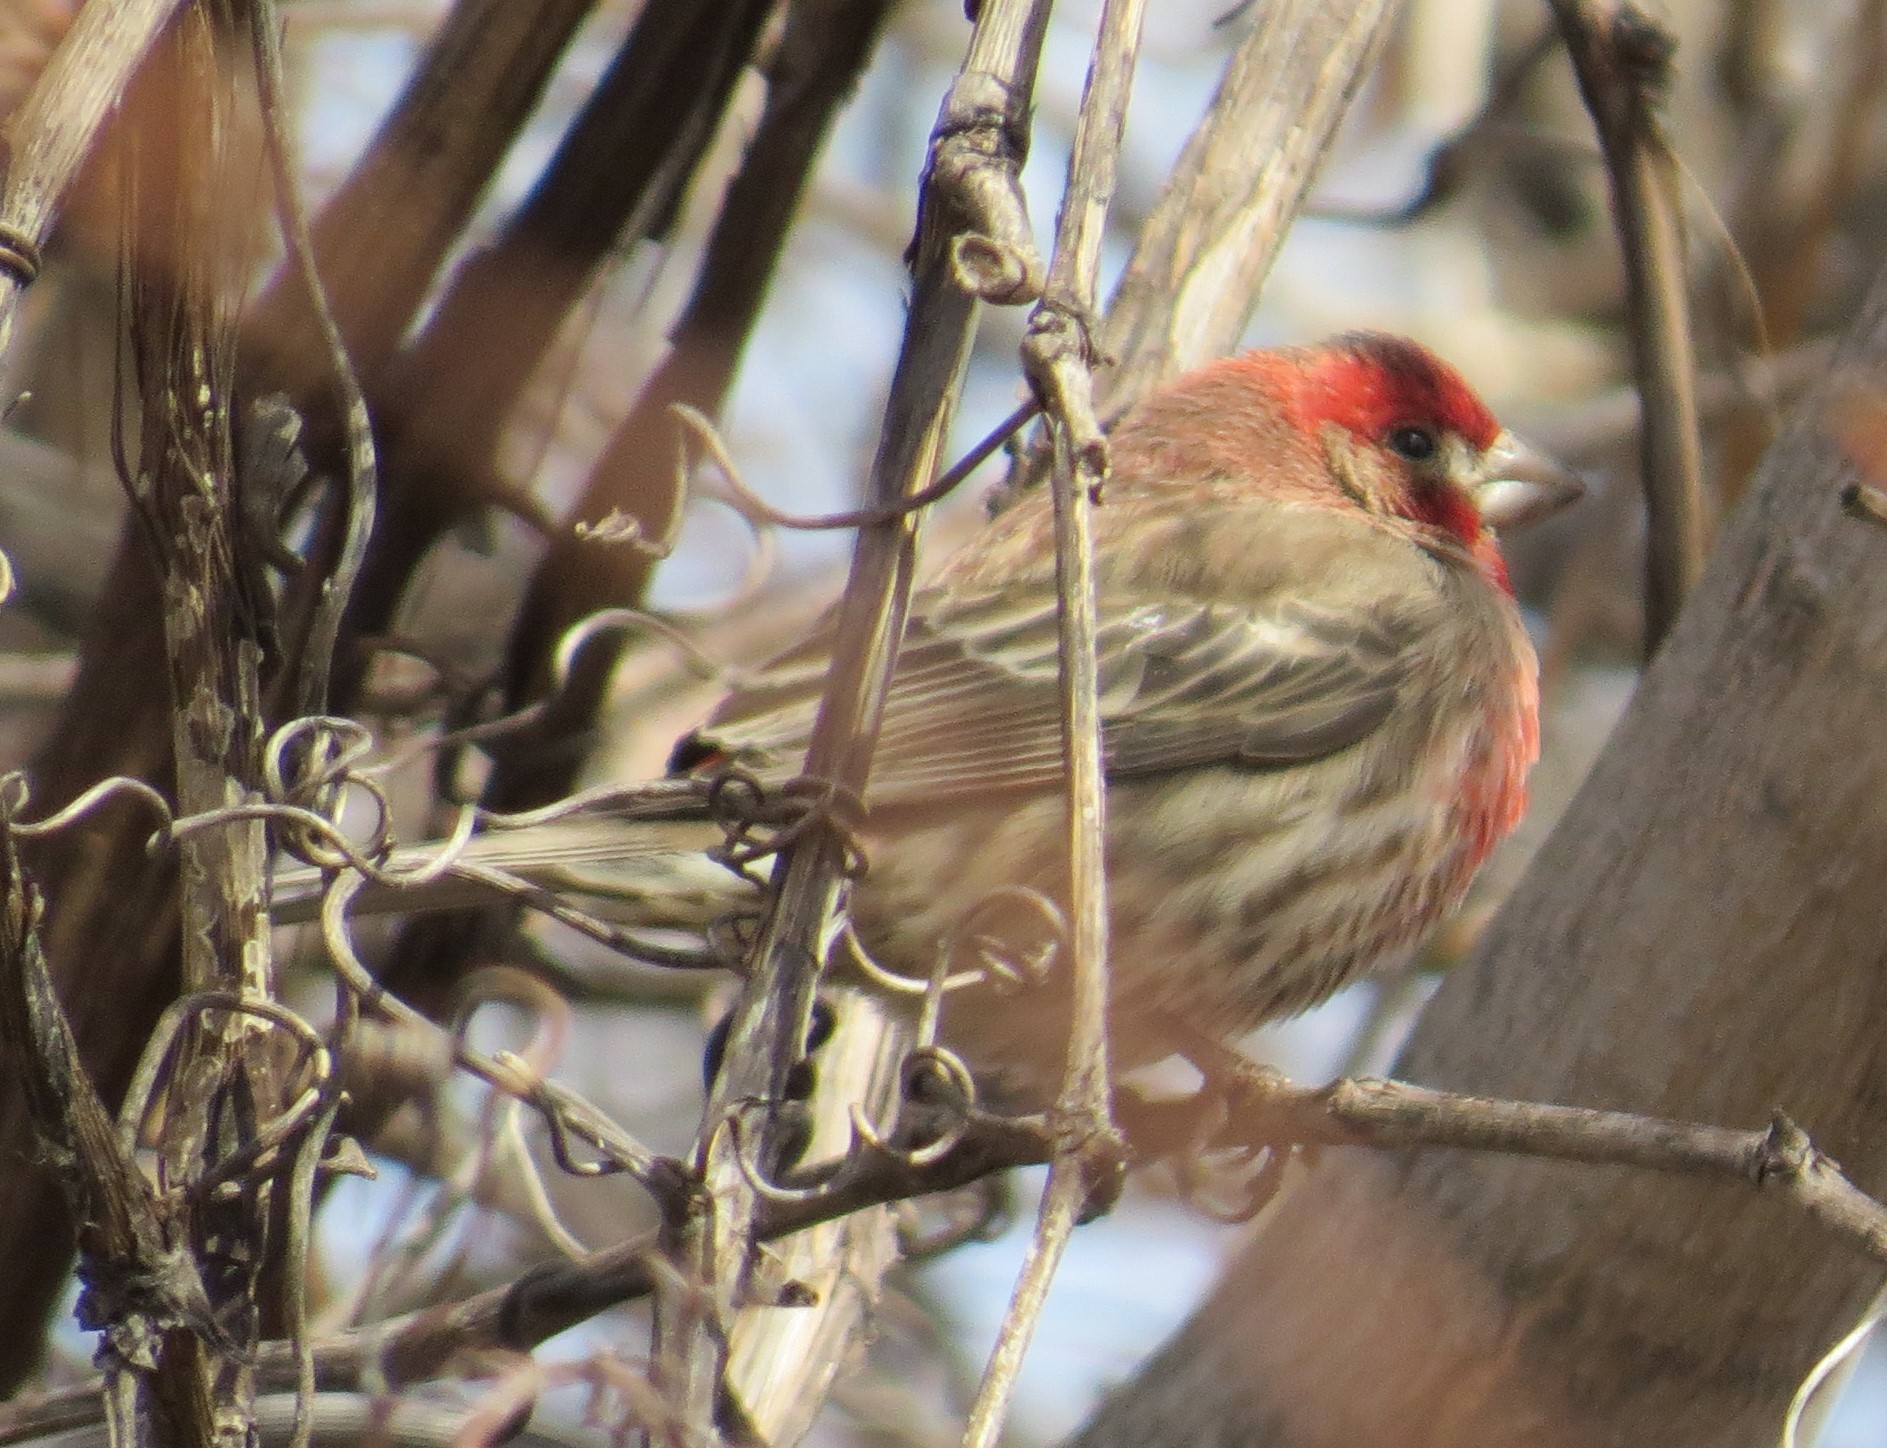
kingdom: Animalia
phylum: Chordata
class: Aves
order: Passeriformes
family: Fringillidae
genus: Haemorhous
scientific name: Haemorhous mexicanus
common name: House finch
